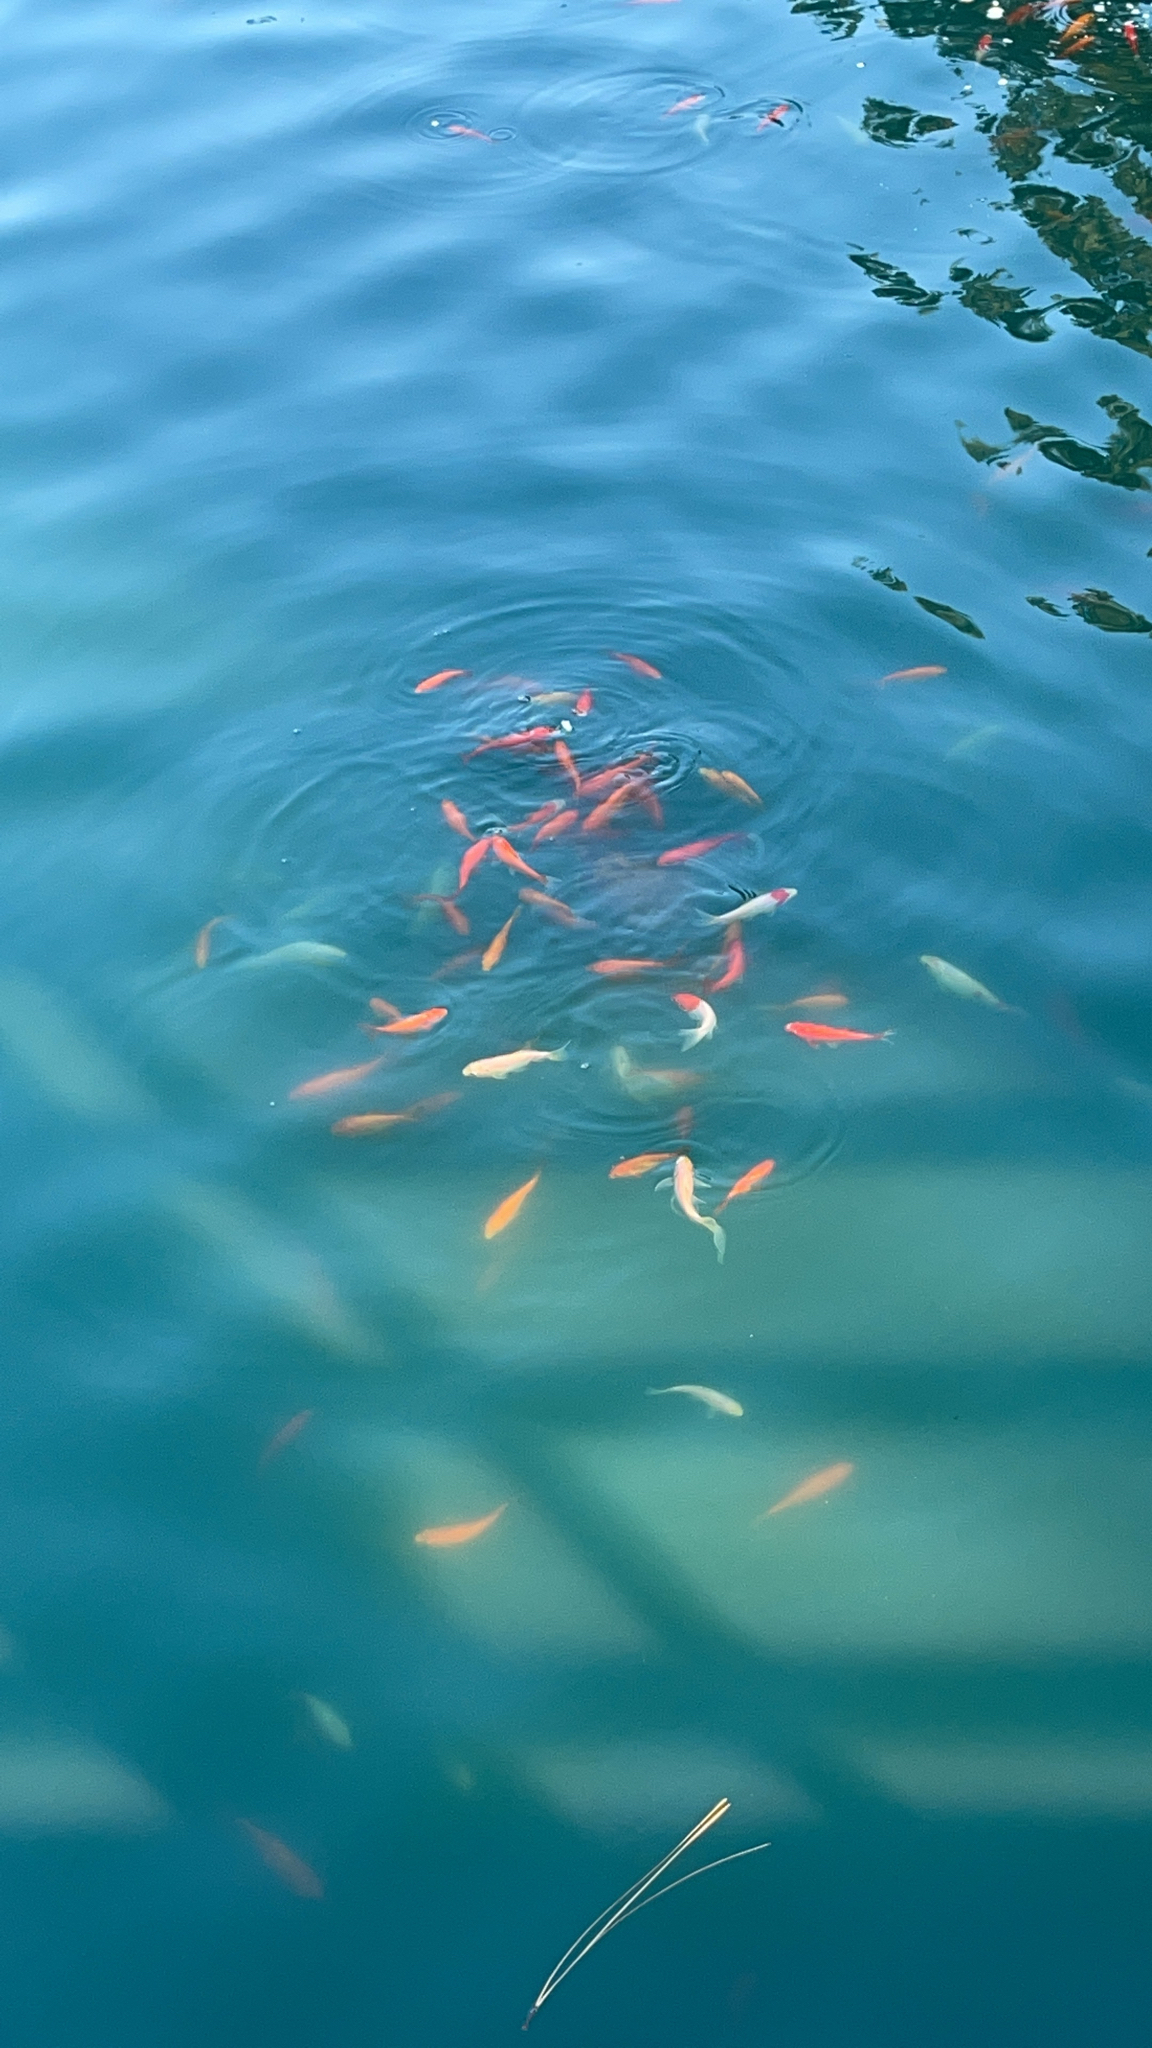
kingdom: Animalia
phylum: Chordata
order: Cypriniformes
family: Cyprinidae
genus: Carassius
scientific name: Carassius auratus
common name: Goldfish
